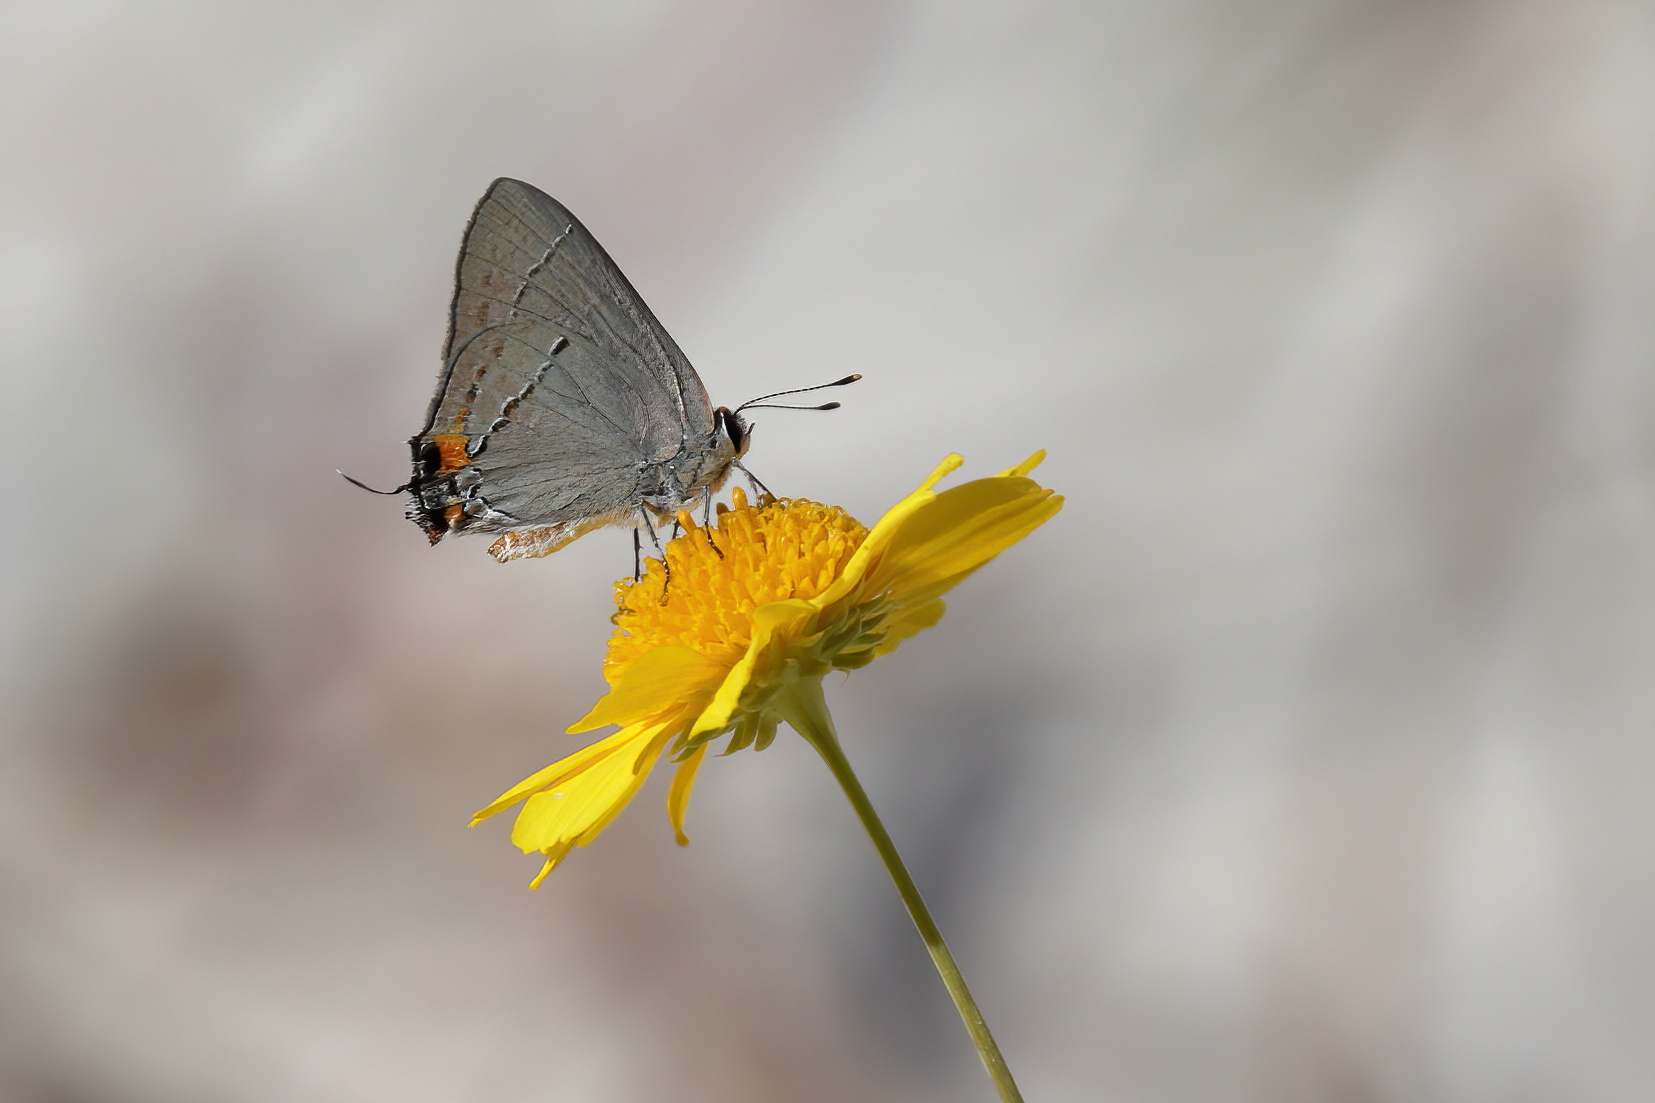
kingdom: Animalia
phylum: Arthropoda
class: Insecta
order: Lepidoptera
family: Lycaenidae
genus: Strymon
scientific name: Strymon melinus
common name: Gray hairstreak
